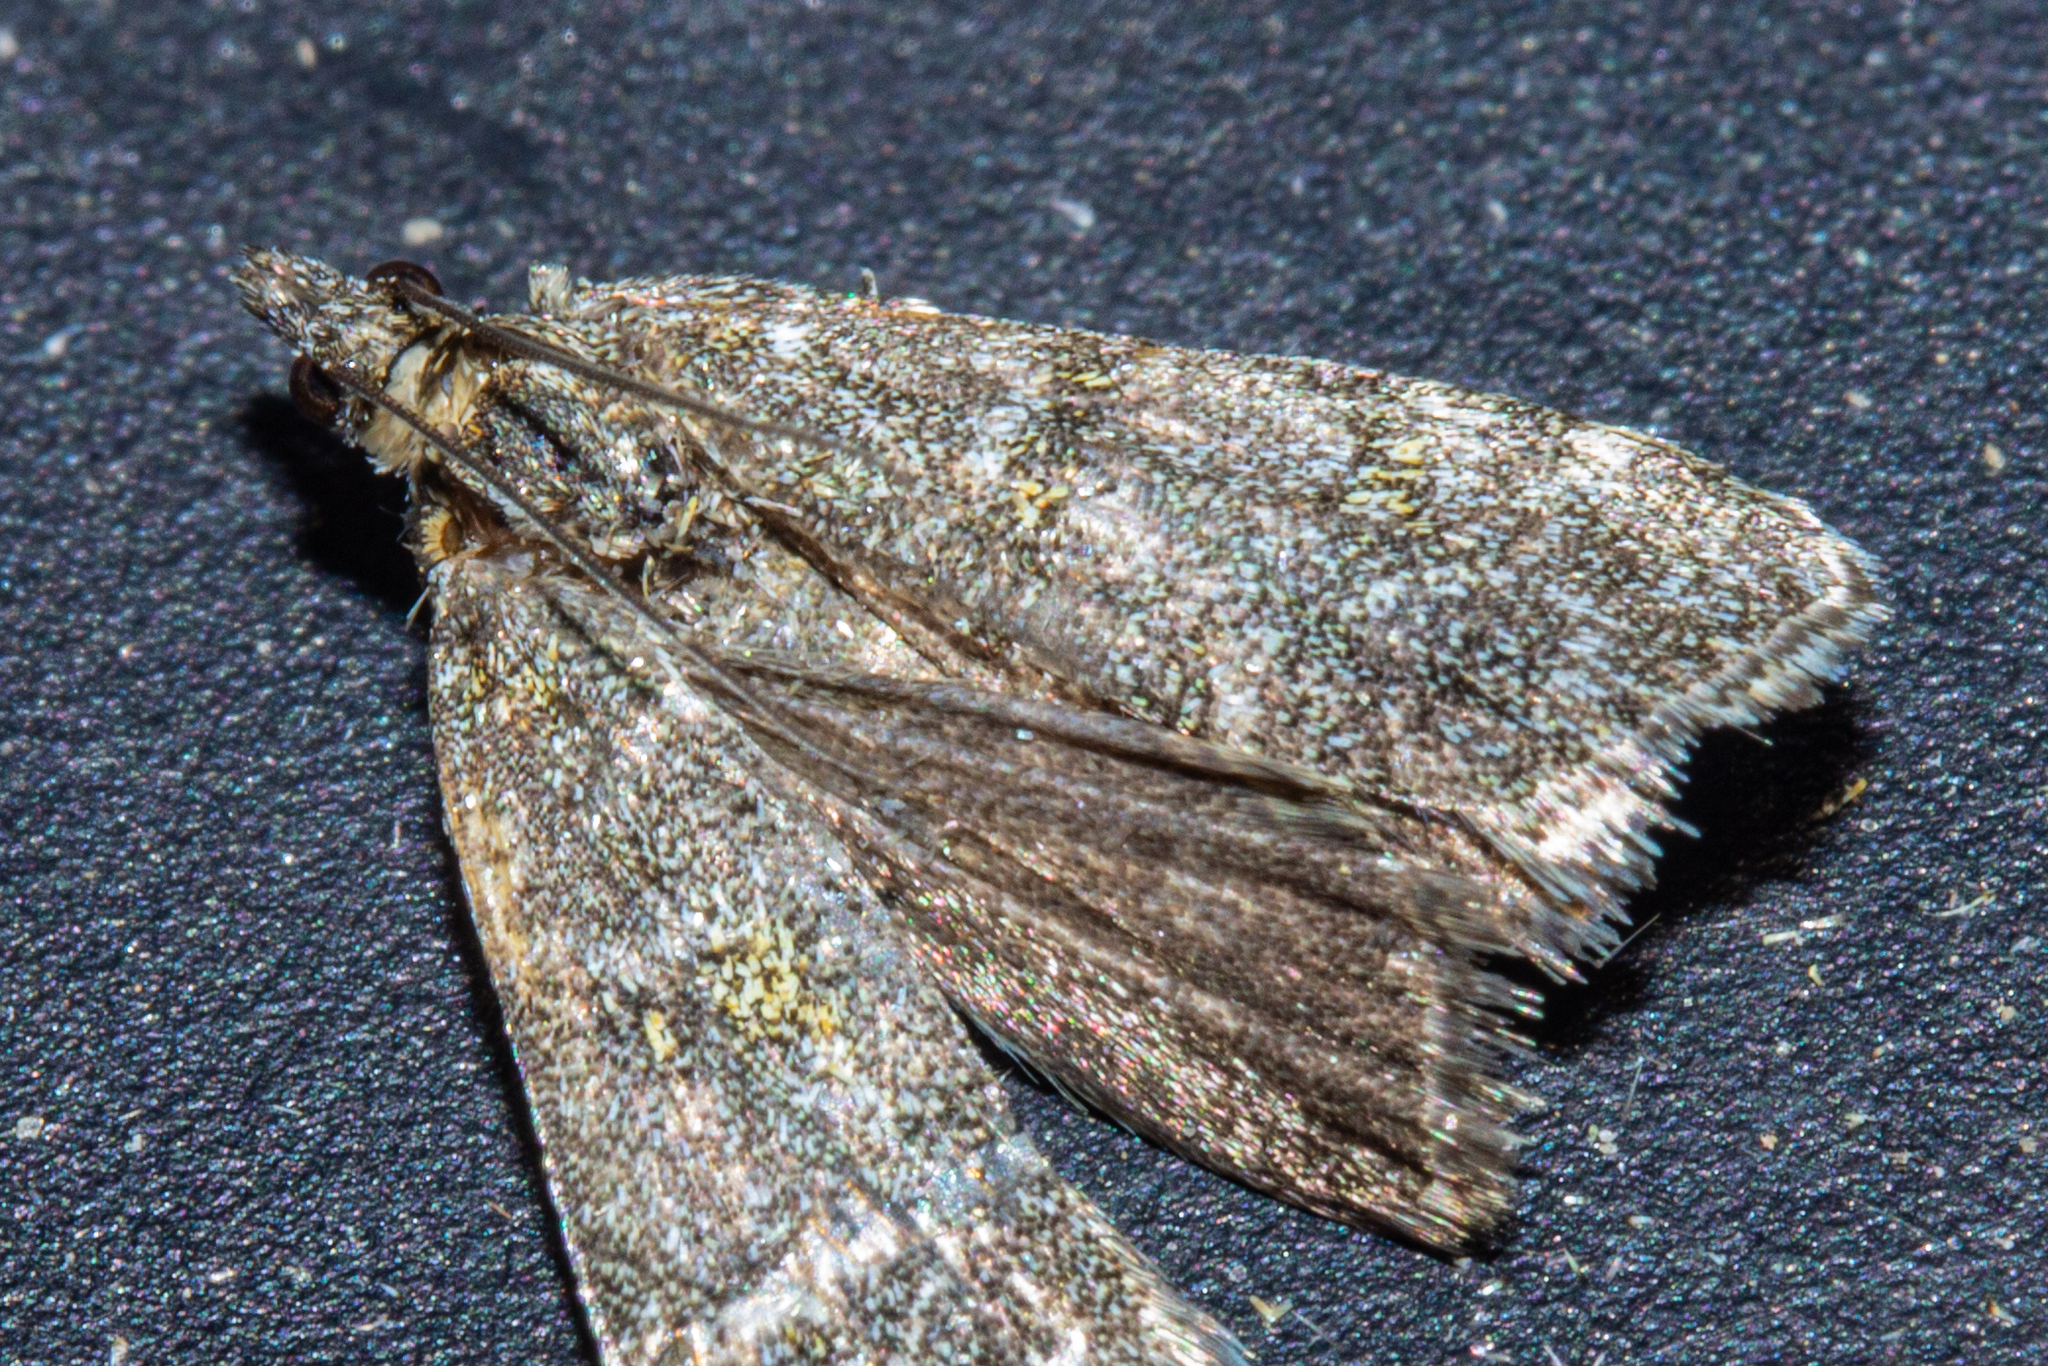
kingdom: Animalia
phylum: Arthropoda
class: Insecta
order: Lepidoptera
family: Crambidae
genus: Eudonia
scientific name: Eudonia microphthalma
